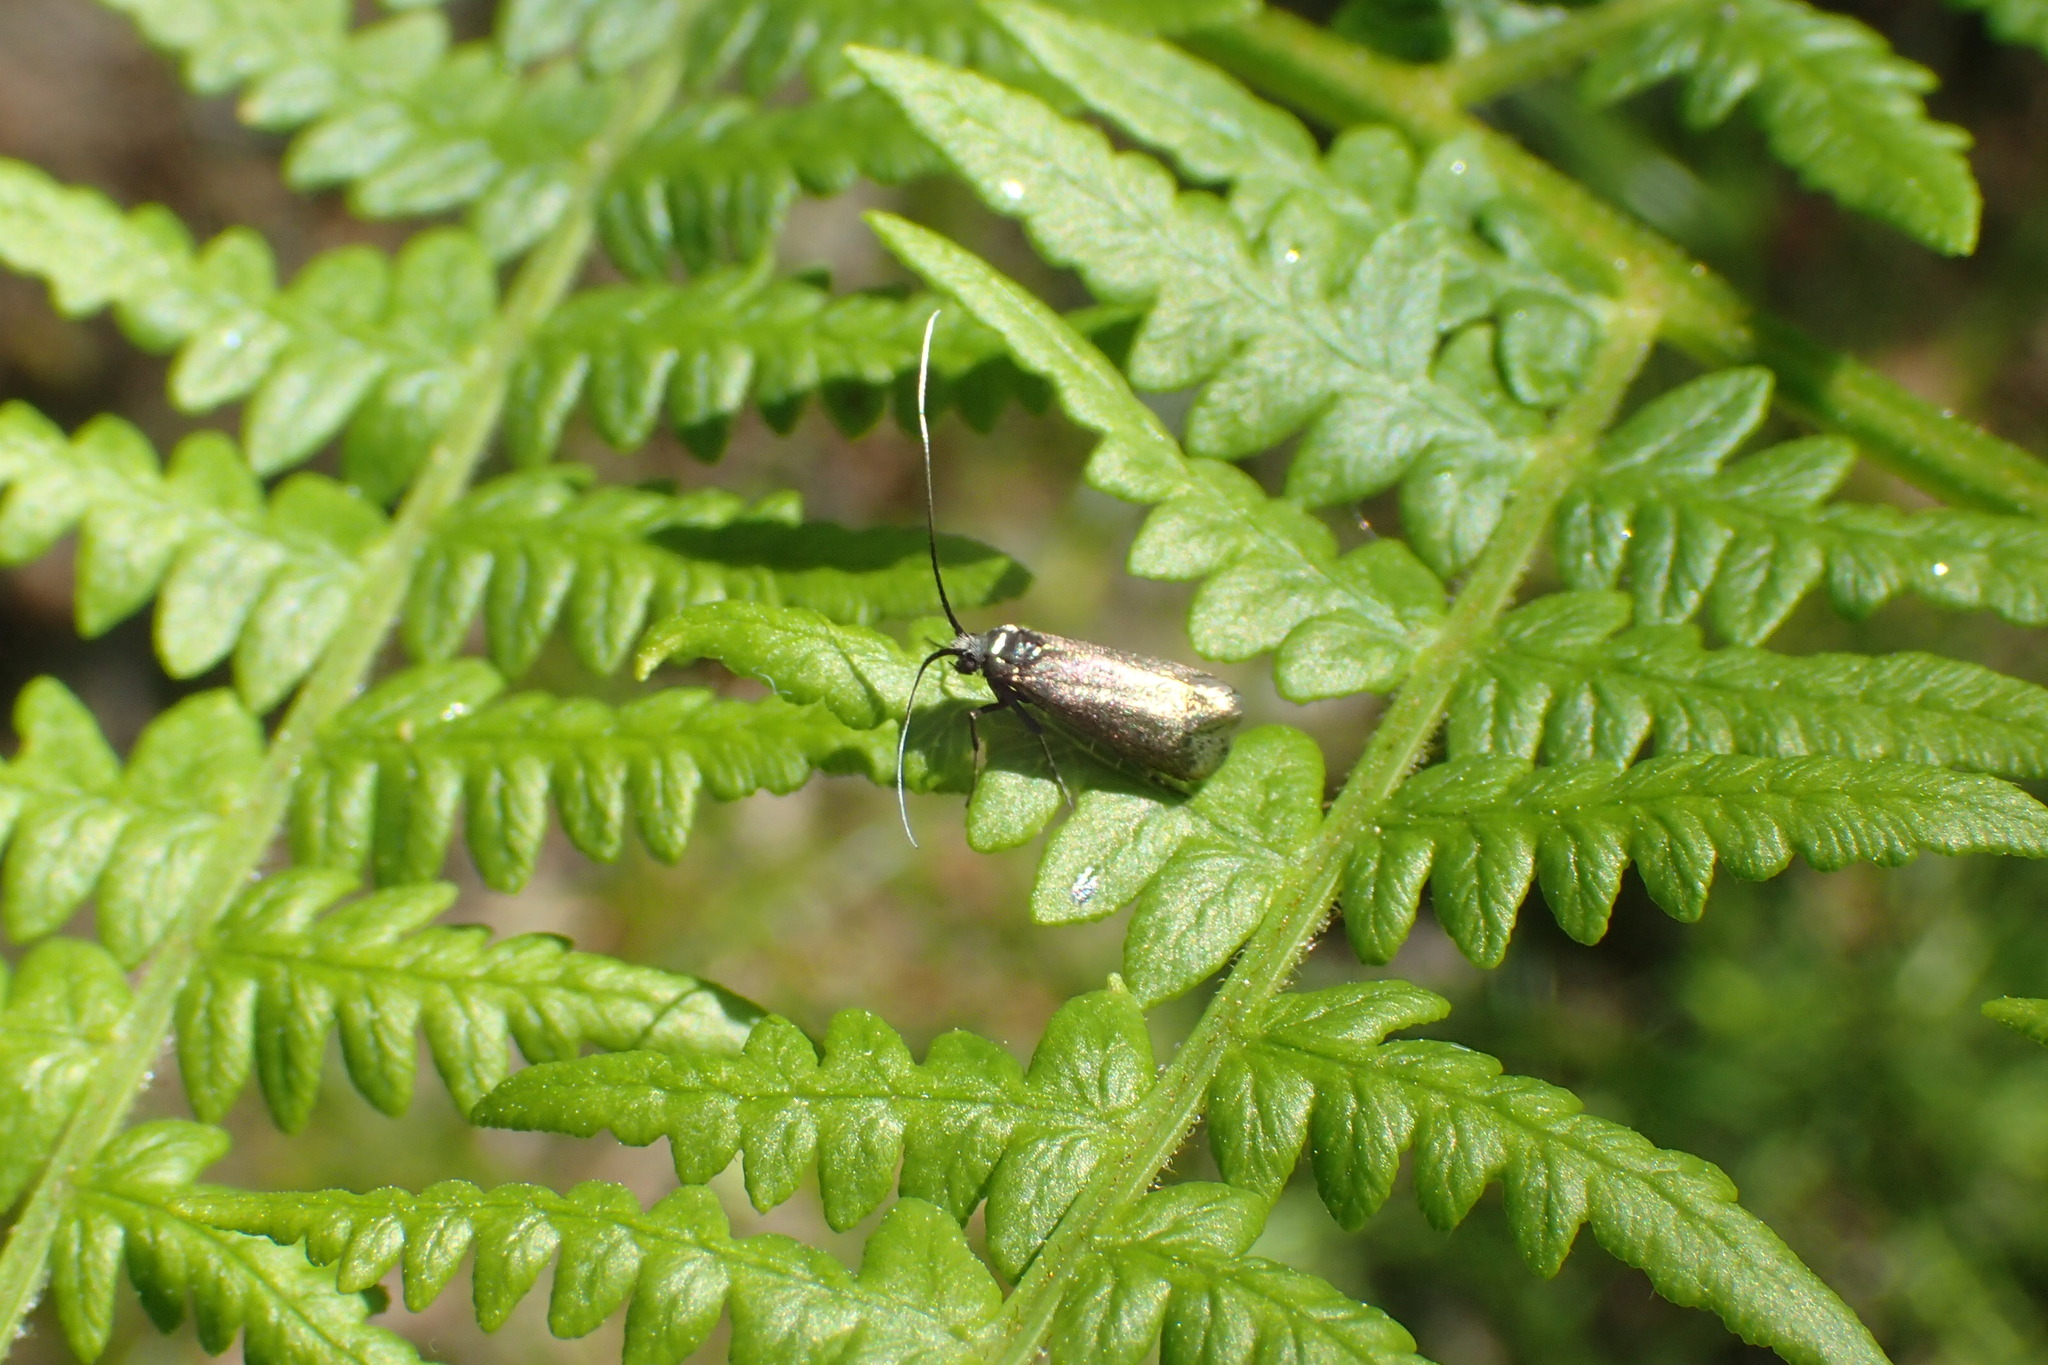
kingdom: Animalia
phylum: Arthropoda
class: Insecta
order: Lepidoptera
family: Adelidae
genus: Adela
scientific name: Adela viridella
